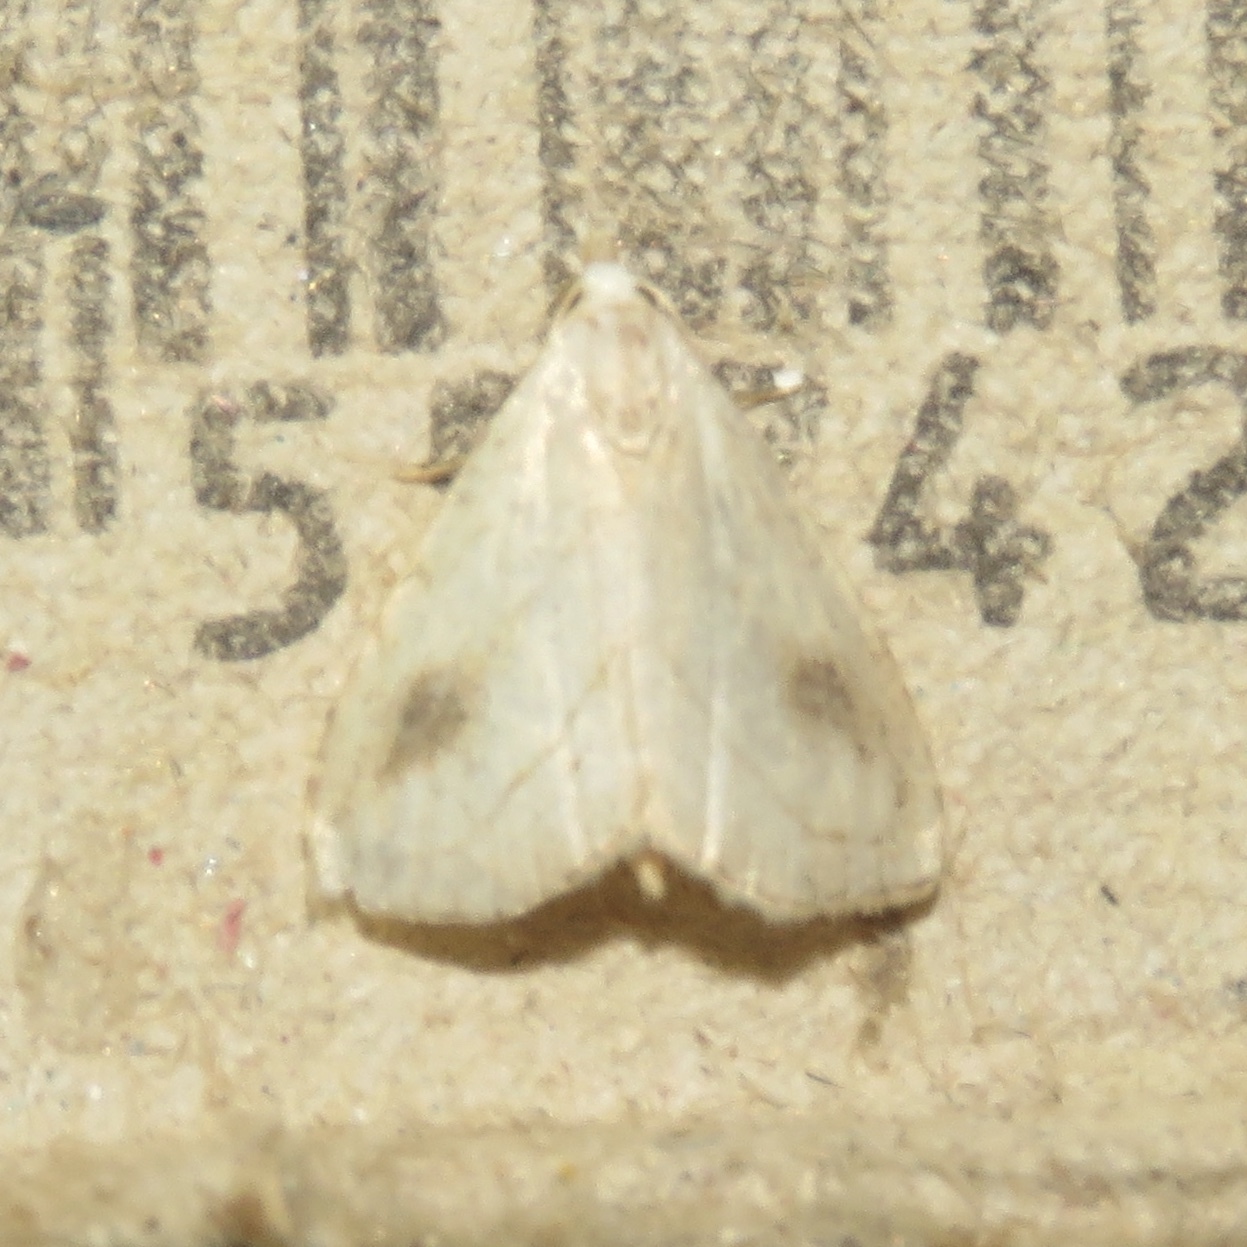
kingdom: Animalia
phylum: Arthropoda
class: Insecta
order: Lepidoptera
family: Erebidae
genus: Rivula
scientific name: Rivula propinqualis
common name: Spotted grass moth
